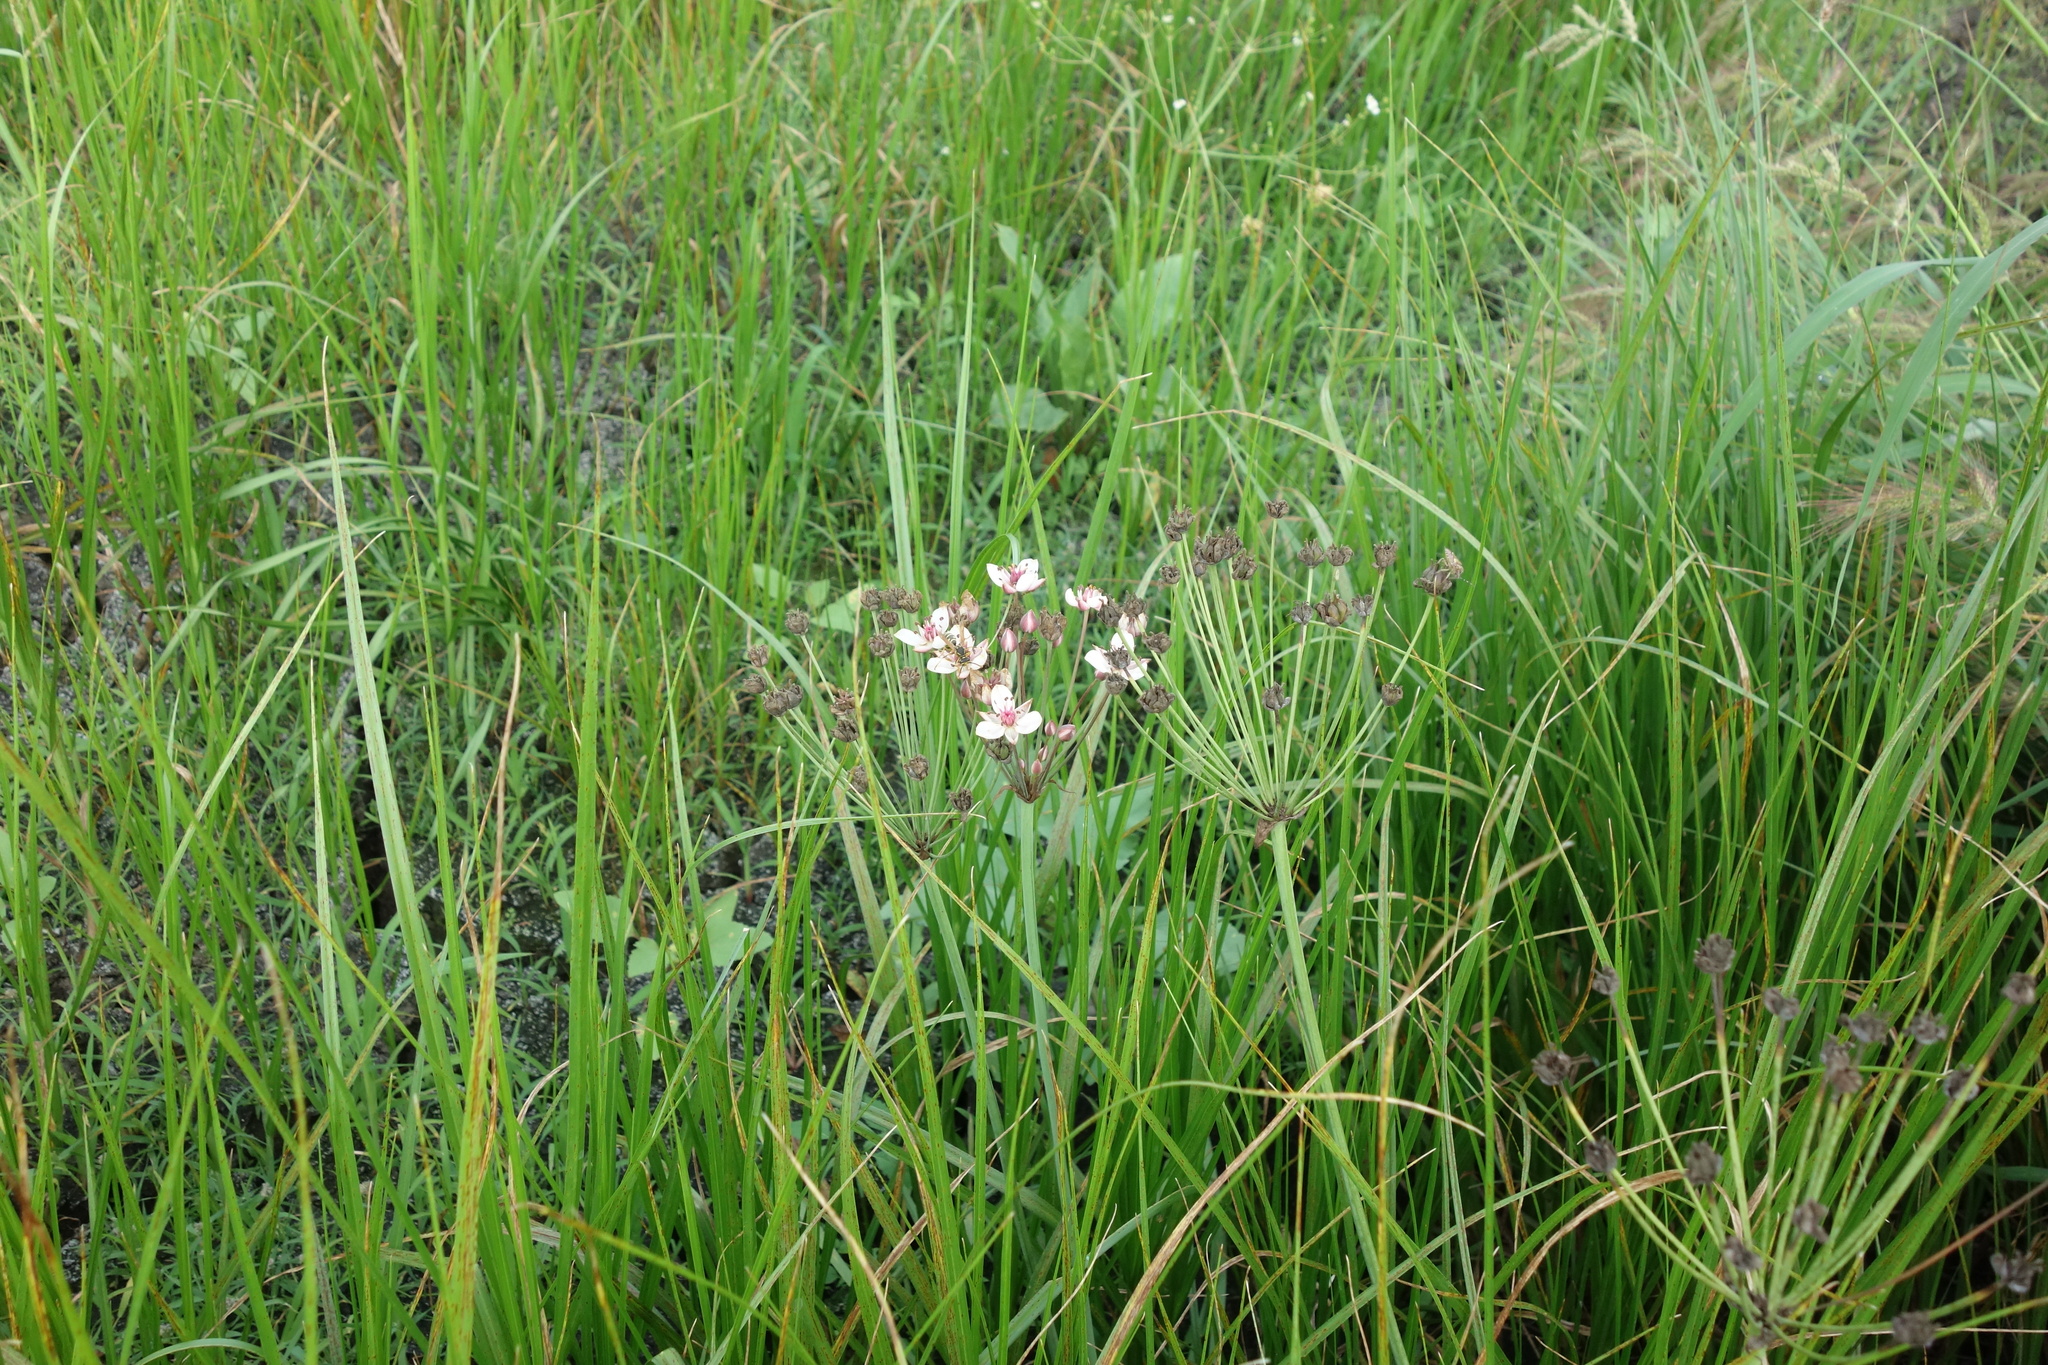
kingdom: Plantae
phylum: Tracheophyta
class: Liliopsida
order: Alismatales
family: Butomaceae
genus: Butomus
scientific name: Butomus umbellatus
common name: Flowering-rush
